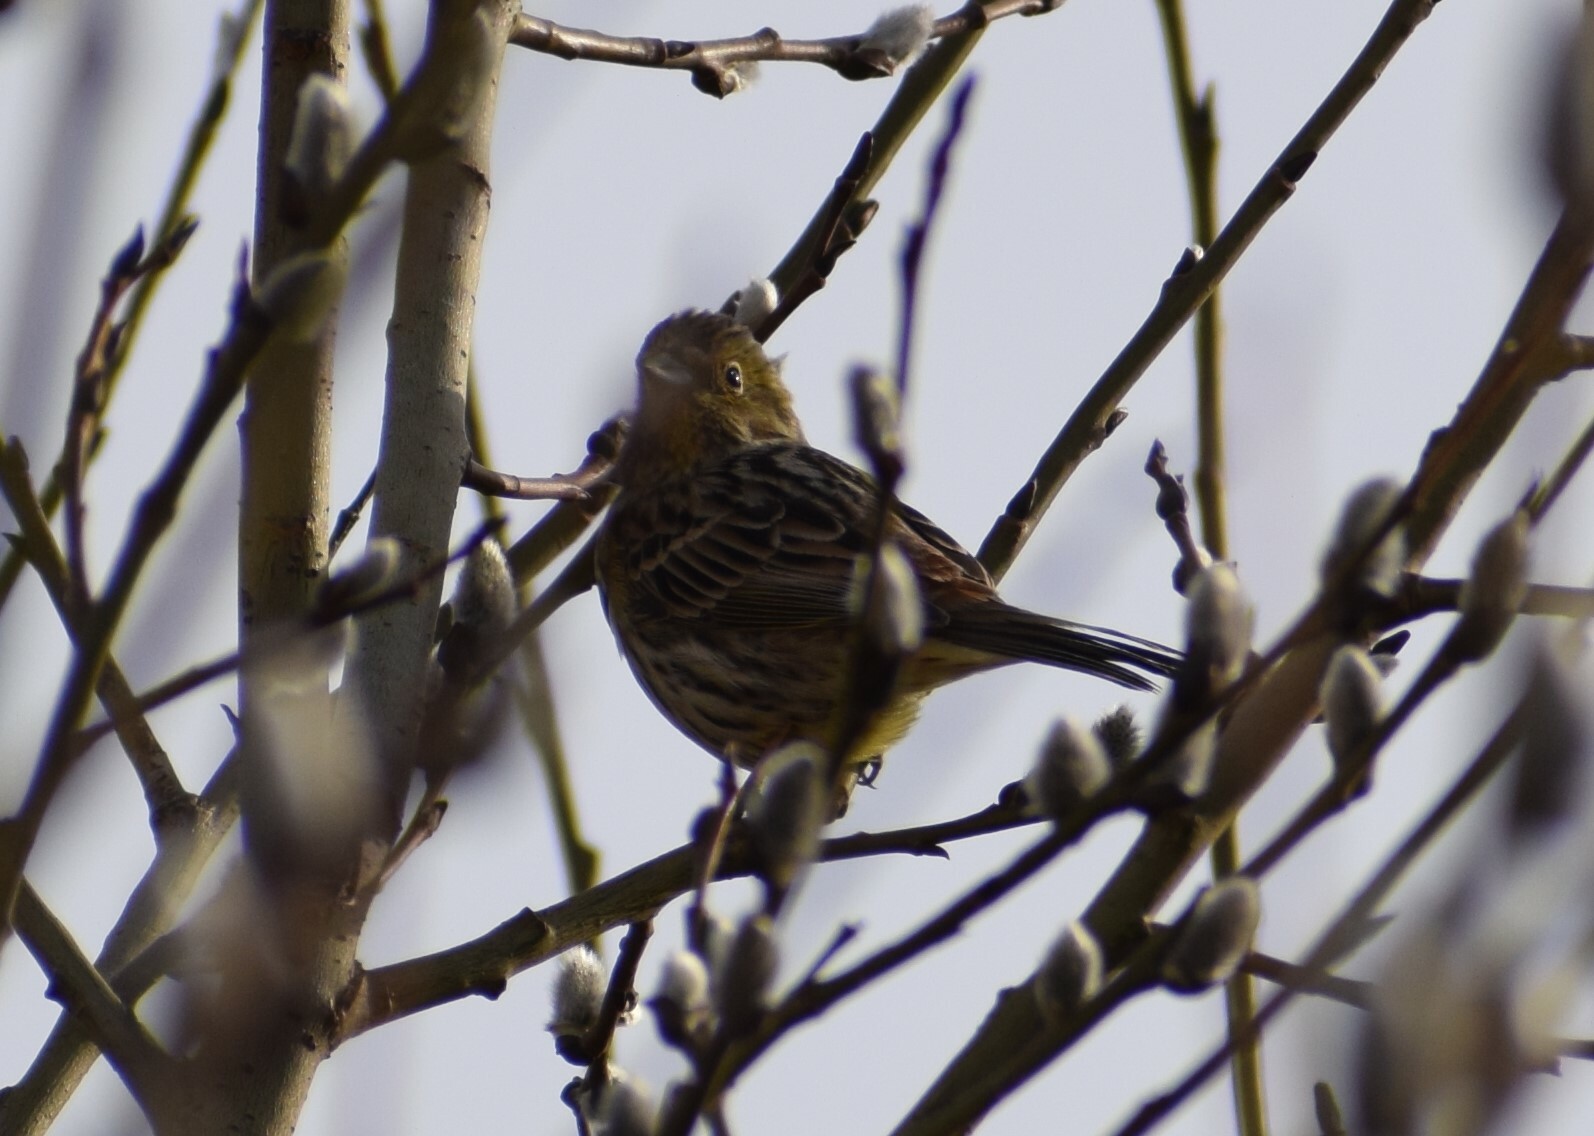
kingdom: Animalia
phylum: Chordata
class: Aves
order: Passeriformes
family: Emberizidae
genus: Emberiza
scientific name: Emberiza citrinella
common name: Yellowhammer
